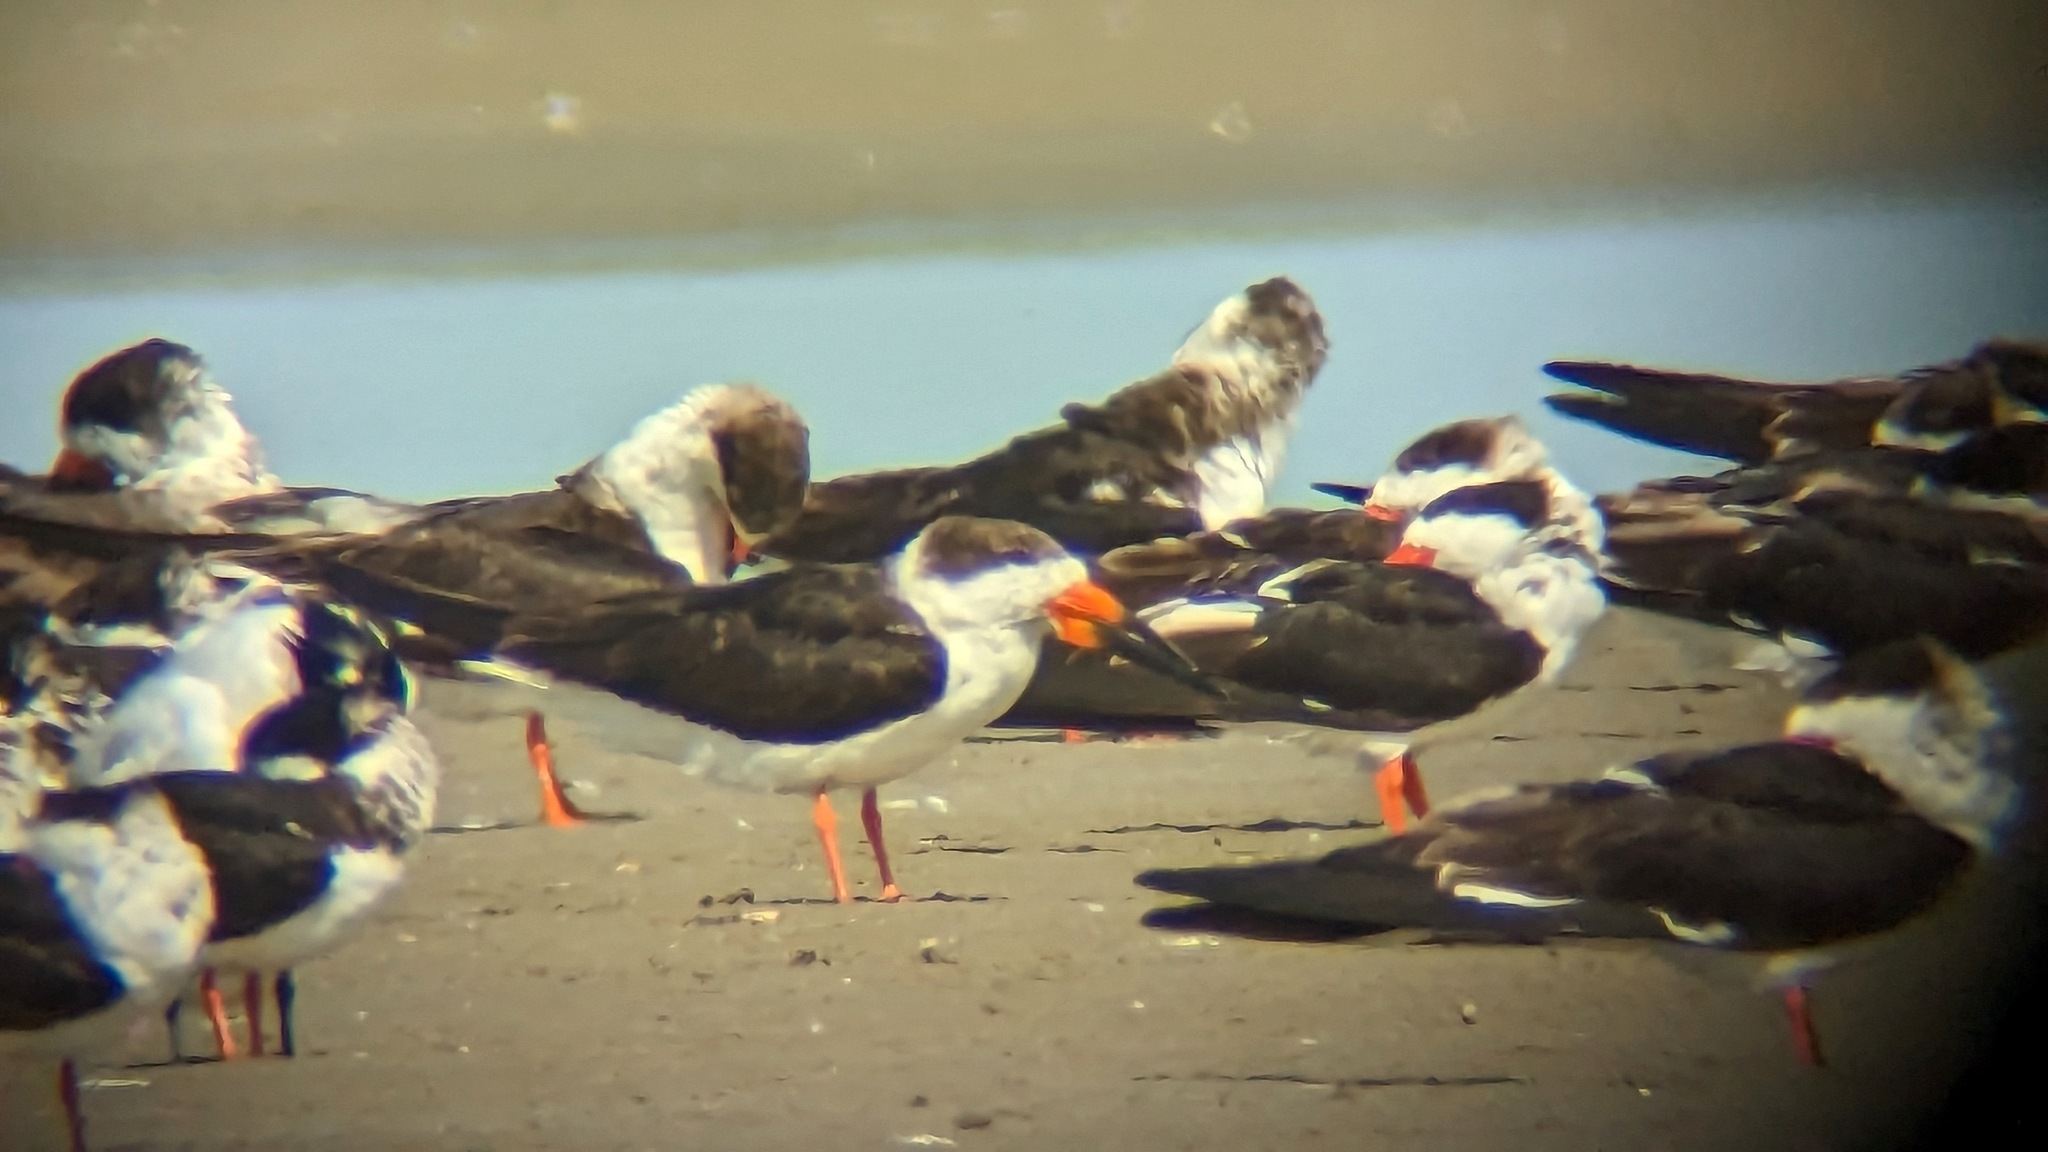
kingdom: Animalia
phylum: Chordata
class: Aves
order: Charadriiformes
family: Laridae
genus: Rynchops
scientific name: Rynchops niger
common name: Black skimmer
